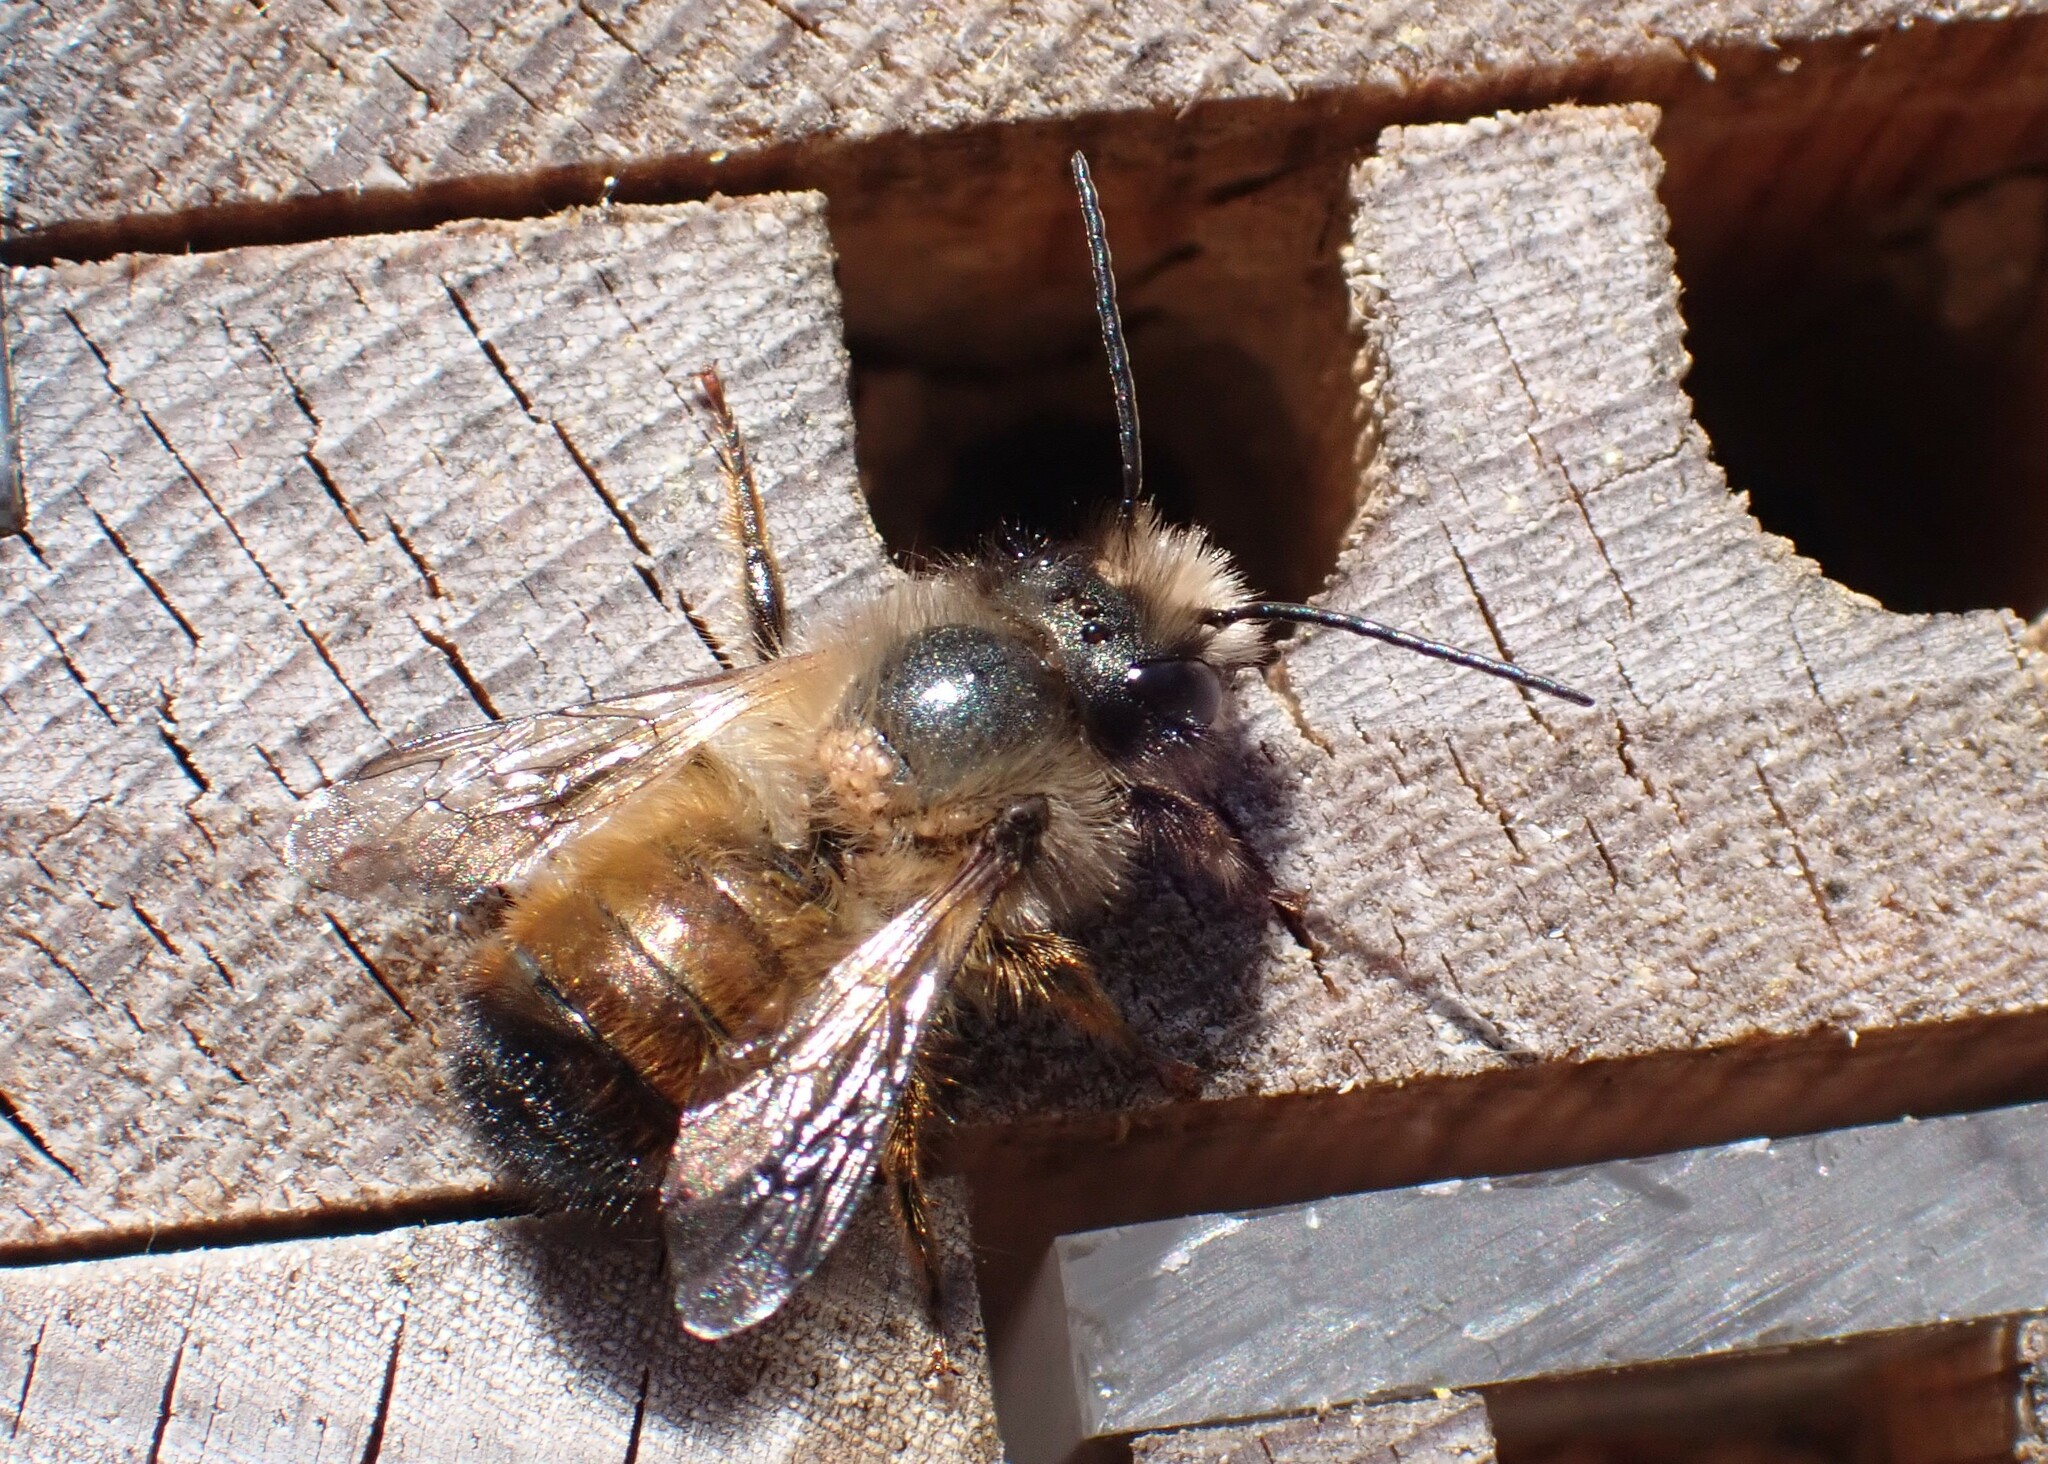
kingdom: Animalia
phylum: Arthropoda
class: Insecta
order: Hymenoptera
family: Megachilidae
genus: Osmia
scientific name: Osmia bicornis
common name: Red mason bee
